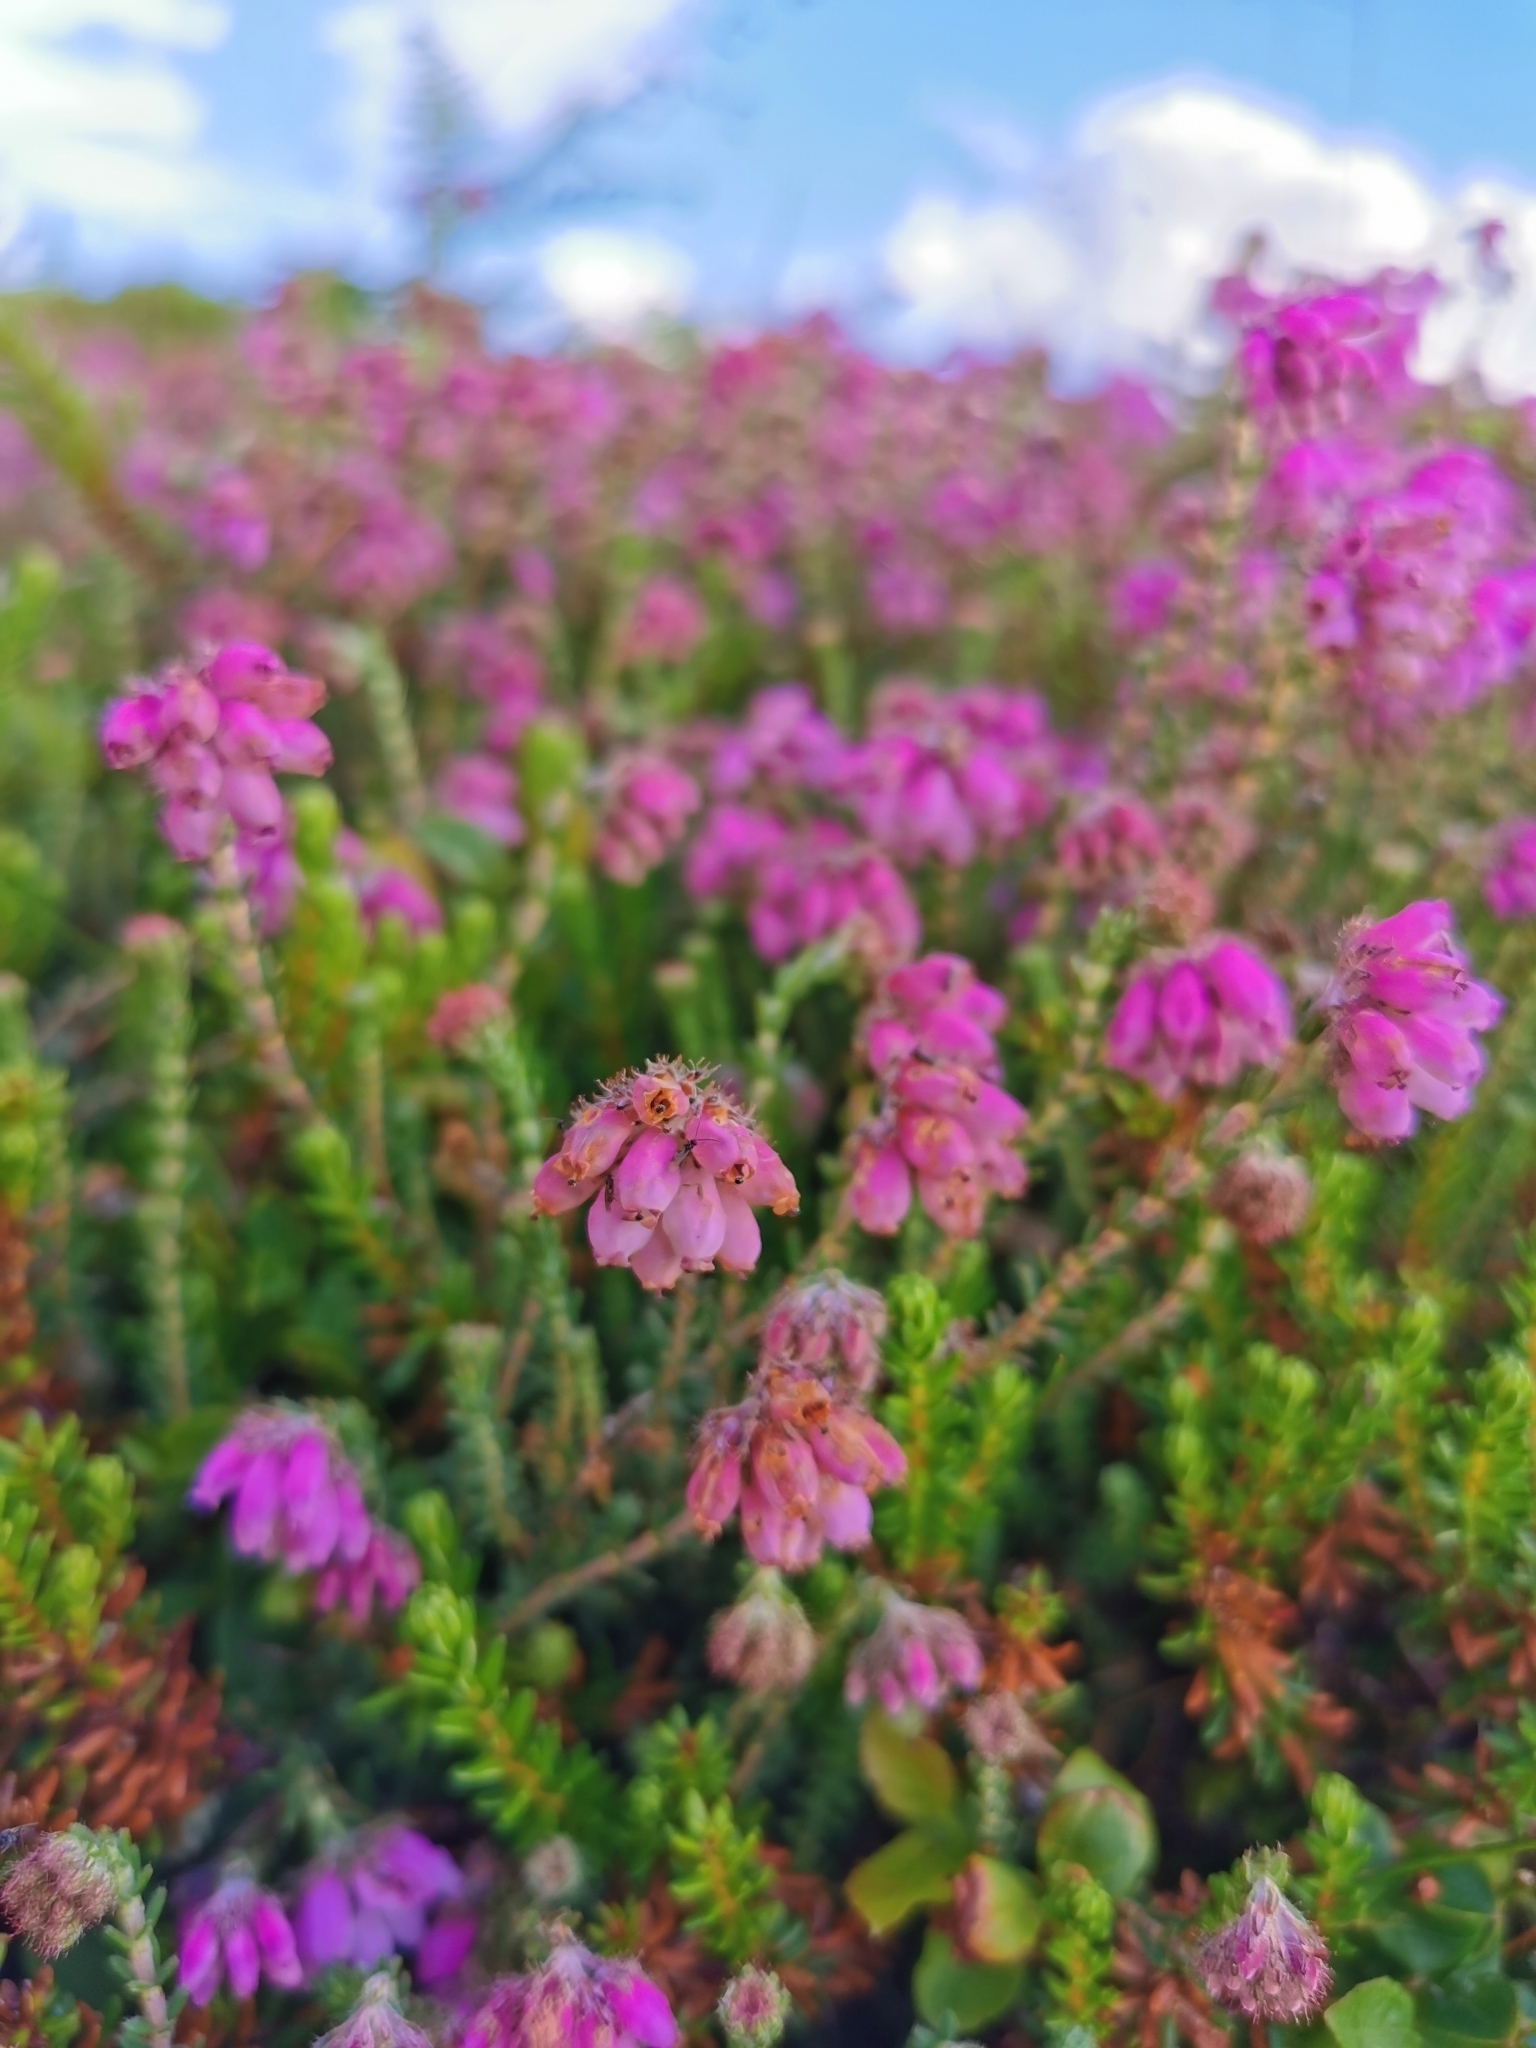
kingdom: Plantae
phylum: Tracheophyta
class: Magnoliopsida
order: Ericales
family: Ericaceae
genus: Erica
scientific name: Erica tetralix
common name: Cross-leaved heath
